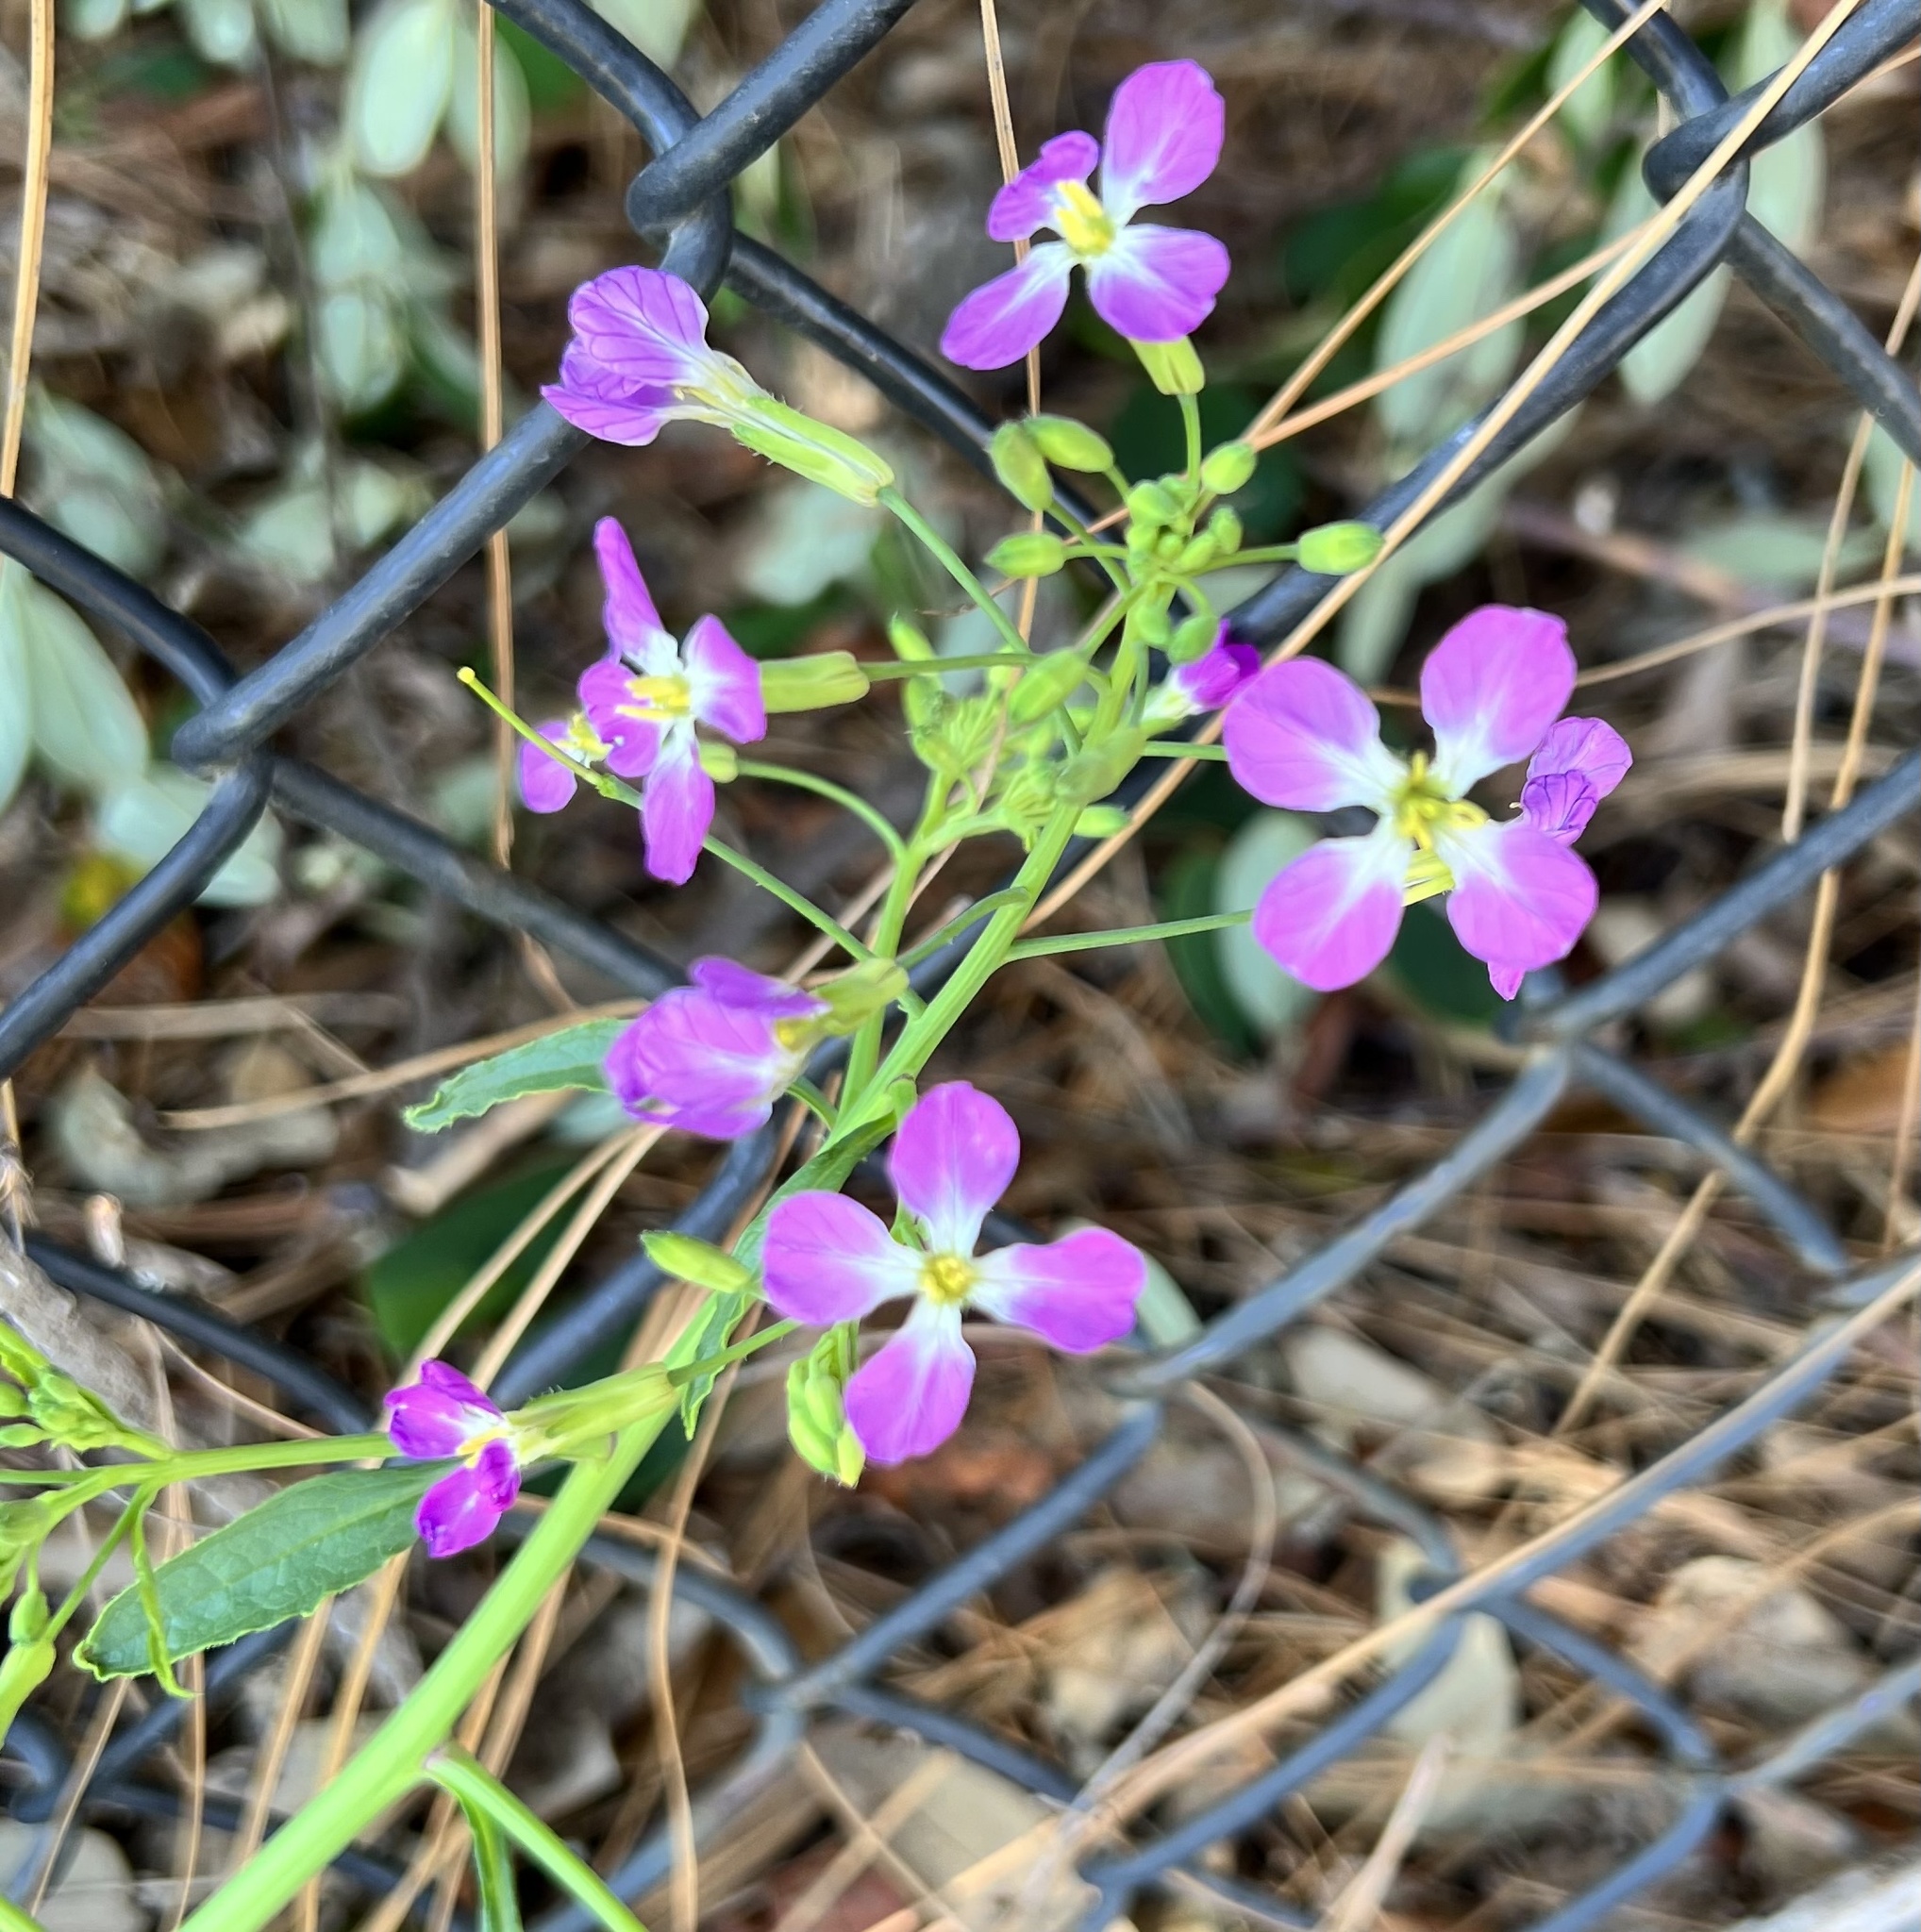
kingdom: Plantae
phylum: Tracheophyta
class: Magnoliopsida
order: Brassicales
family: Brassicaceae
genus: Raphanus
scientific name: Raphanus sativus
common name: Cultivated radish
